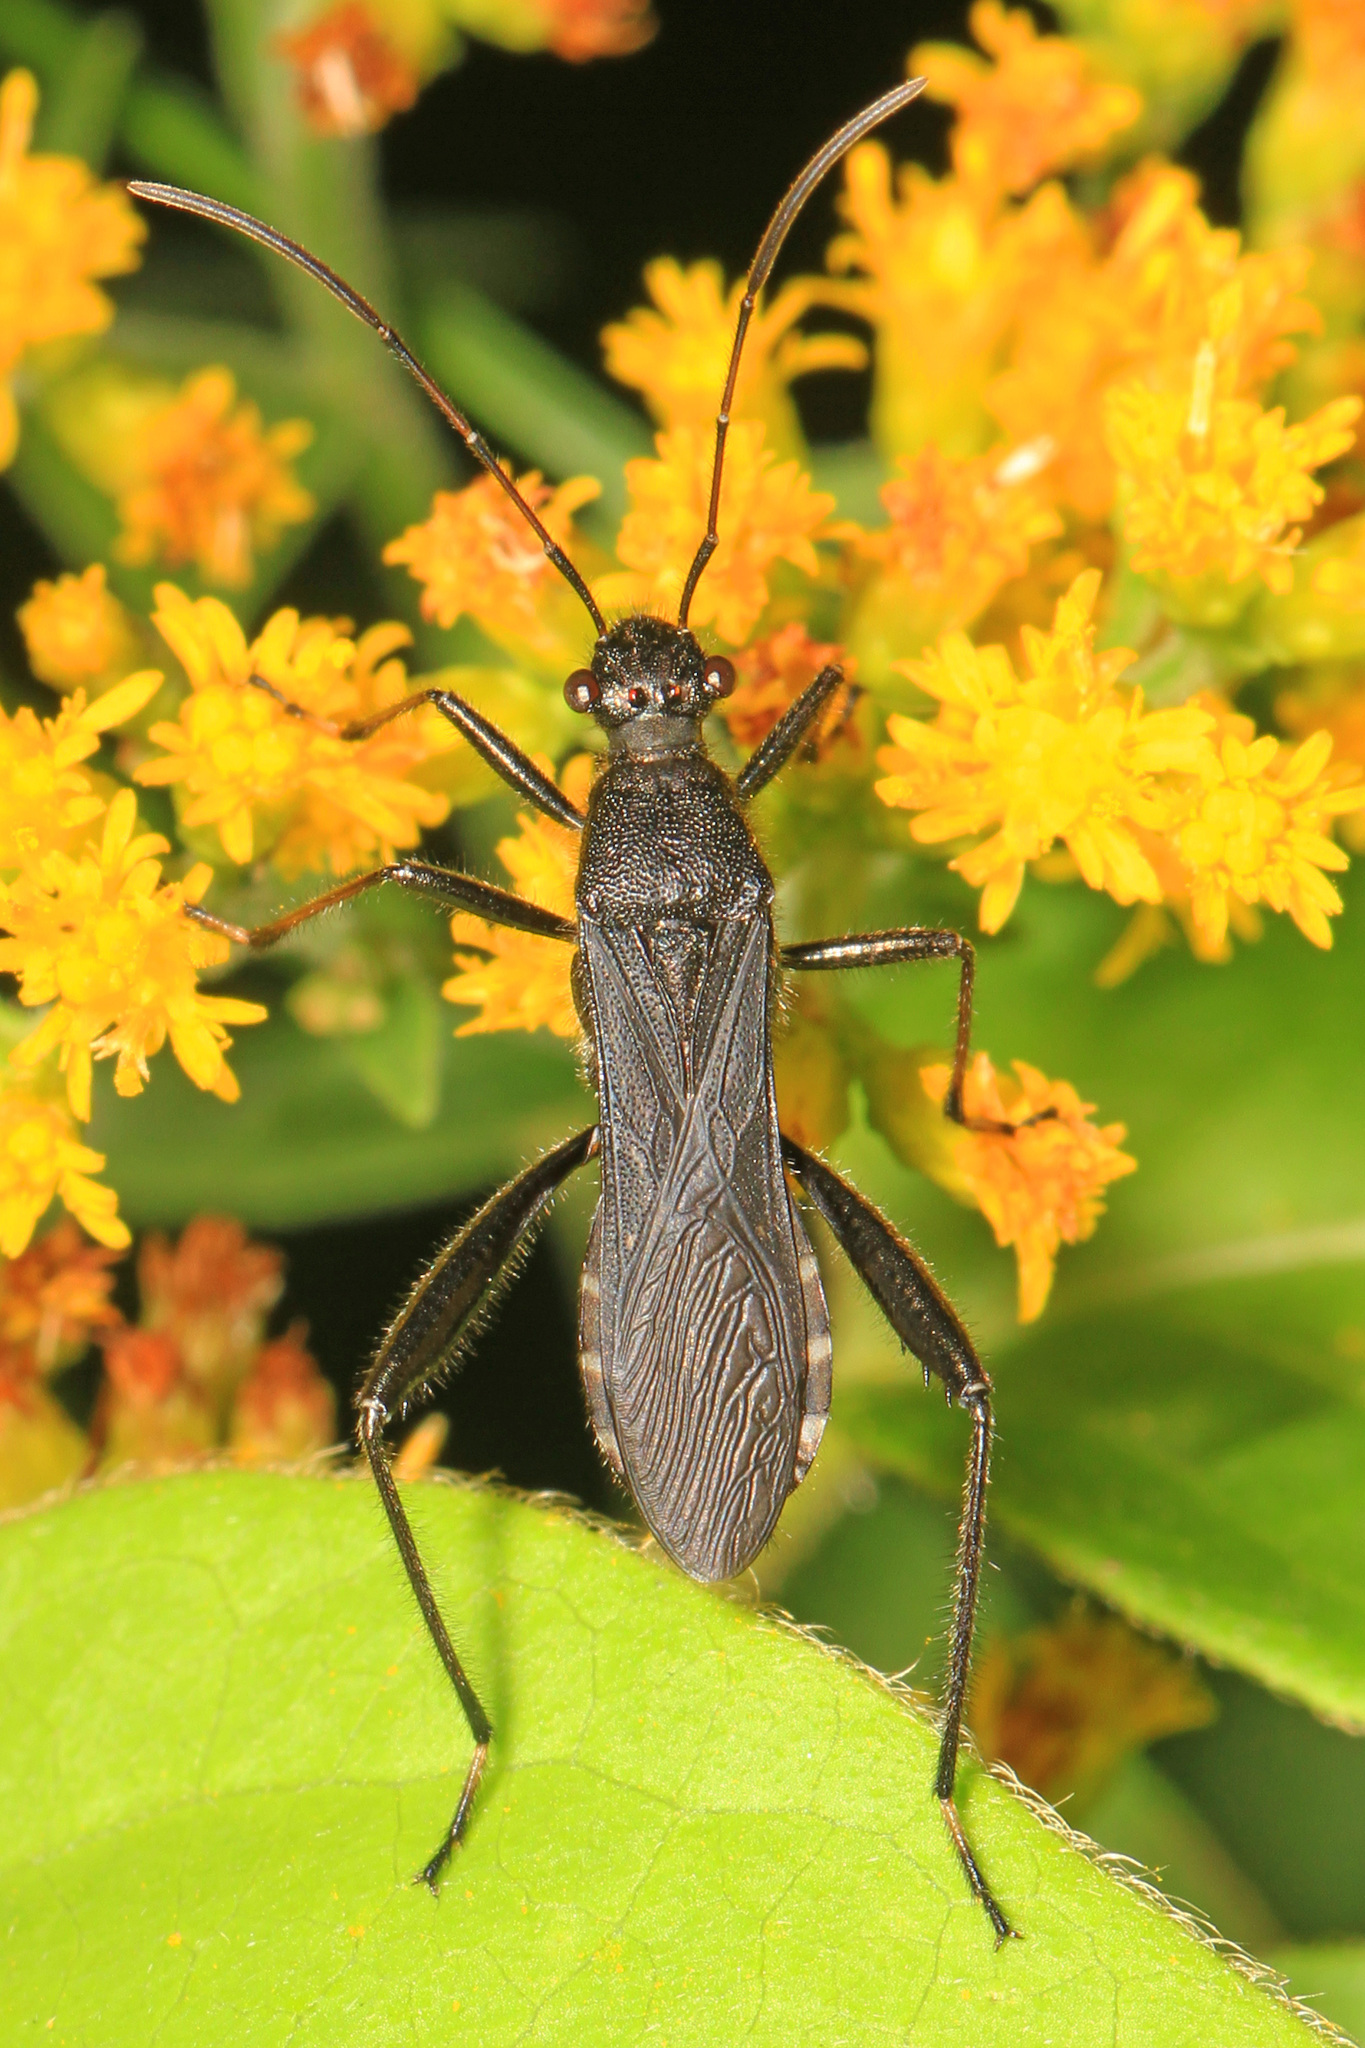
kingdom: Animalia
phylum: Arthropoda
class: Insecta
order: Hemiptera
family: Alydidae
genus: Alydus
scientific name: Alydus eurinus
